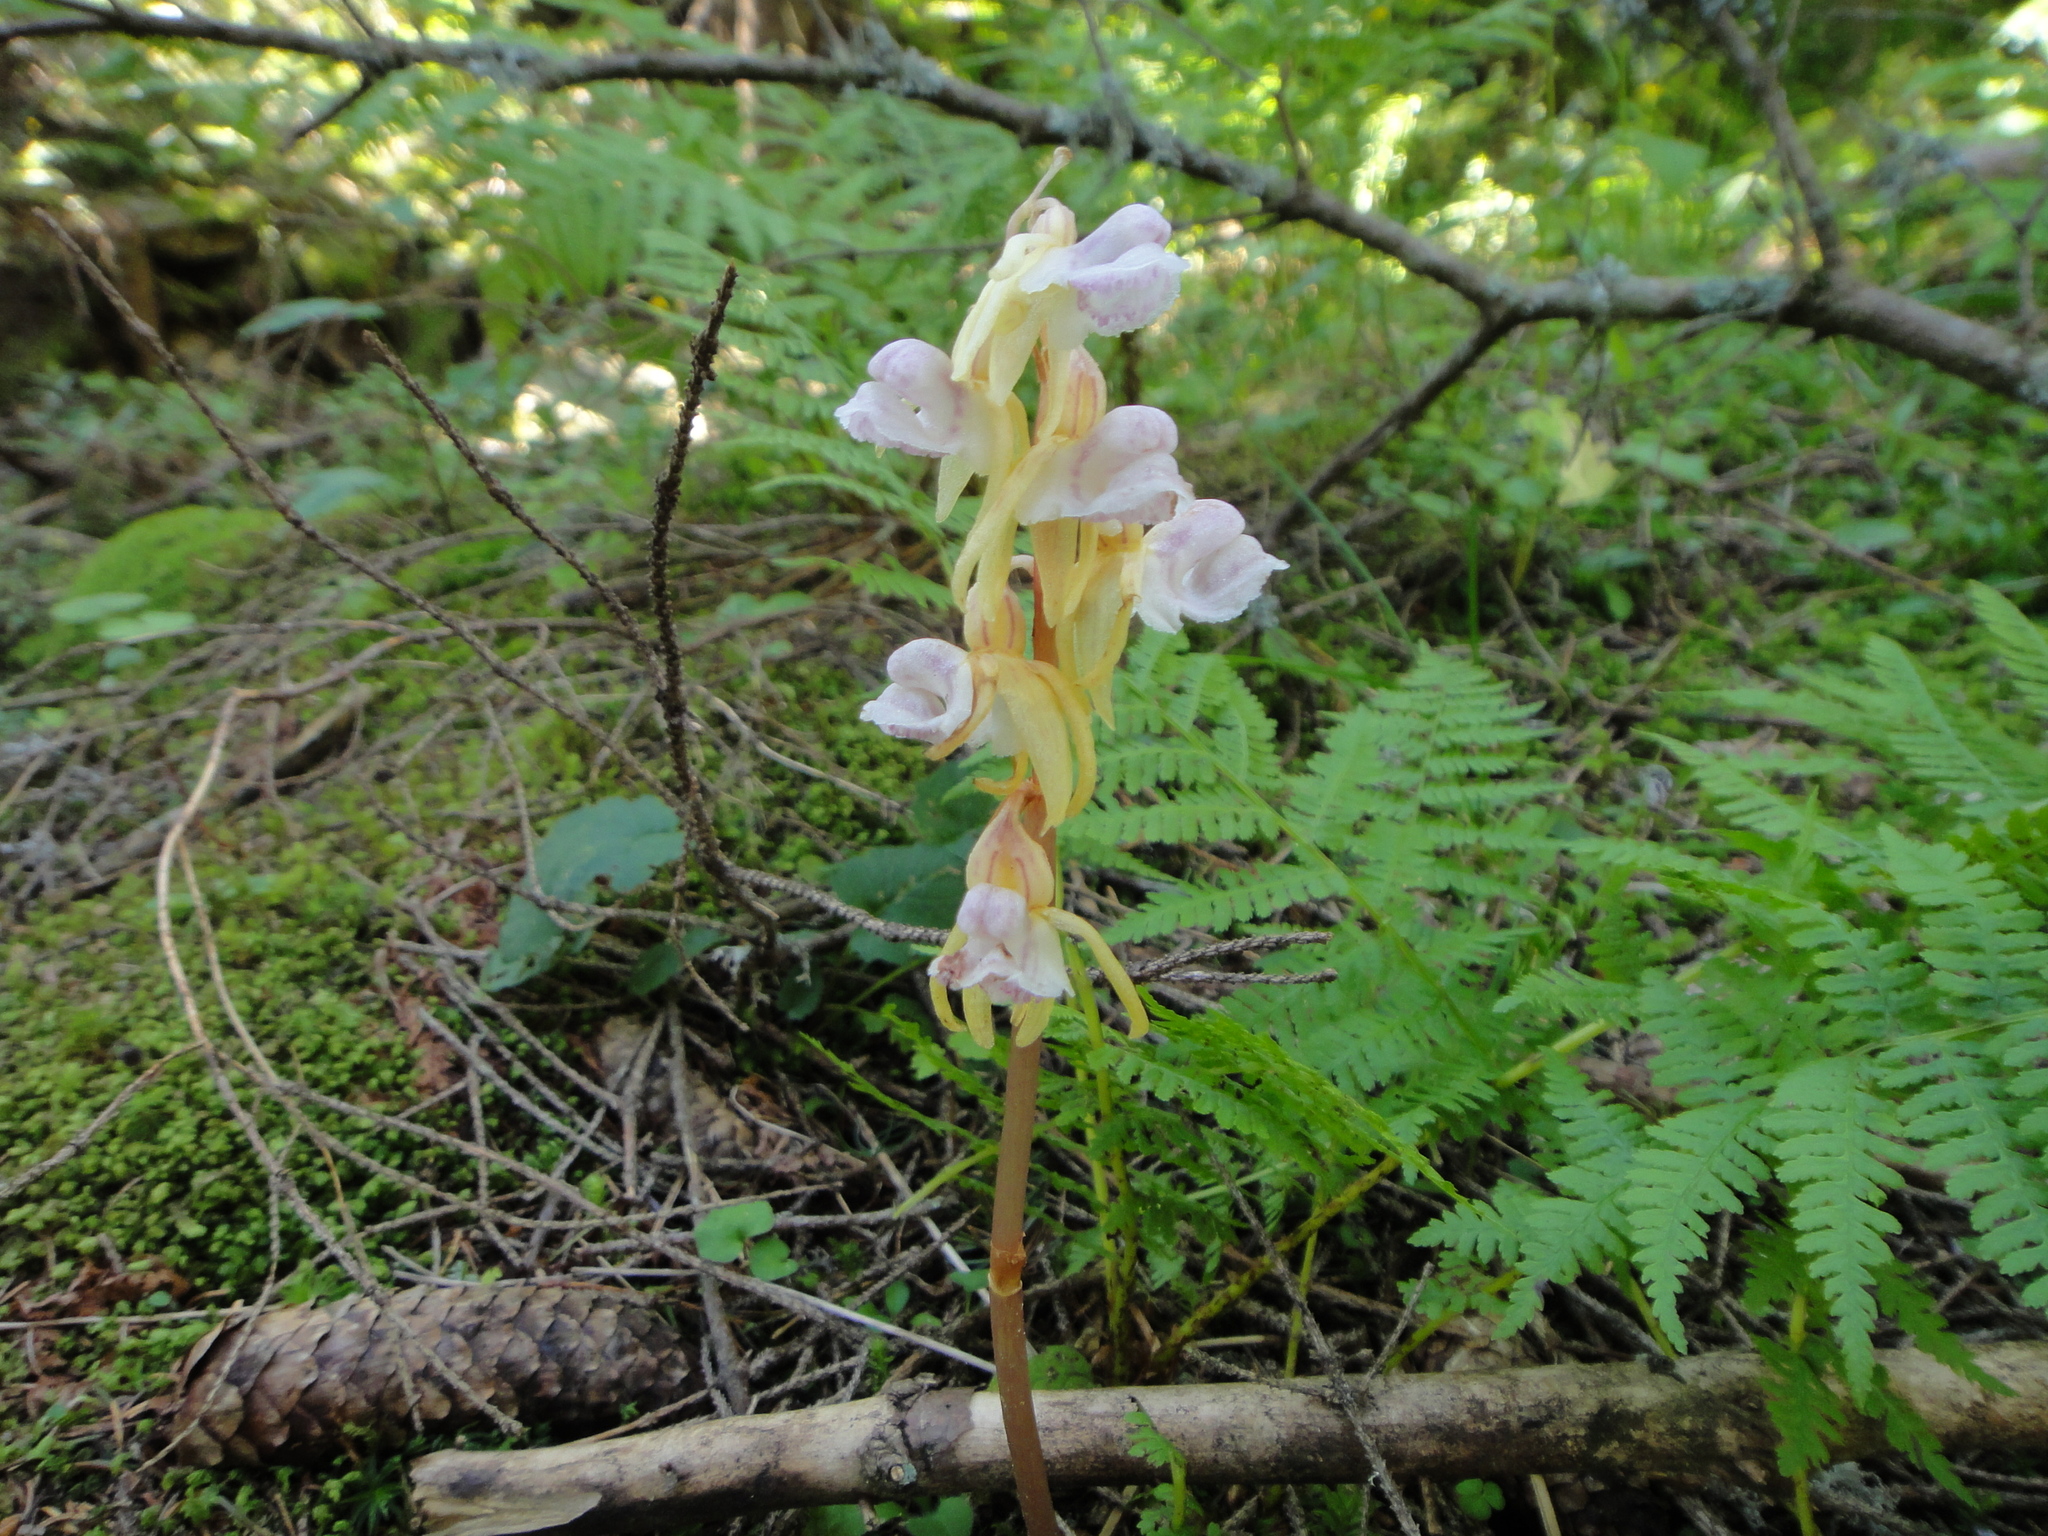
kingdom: Plantae
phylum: Tracheophyta
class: Liliopsida
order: Asparagales
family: Orchidaceae
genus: Epipogium
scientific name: Epipogium aphyllum
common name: Ghost orchid
